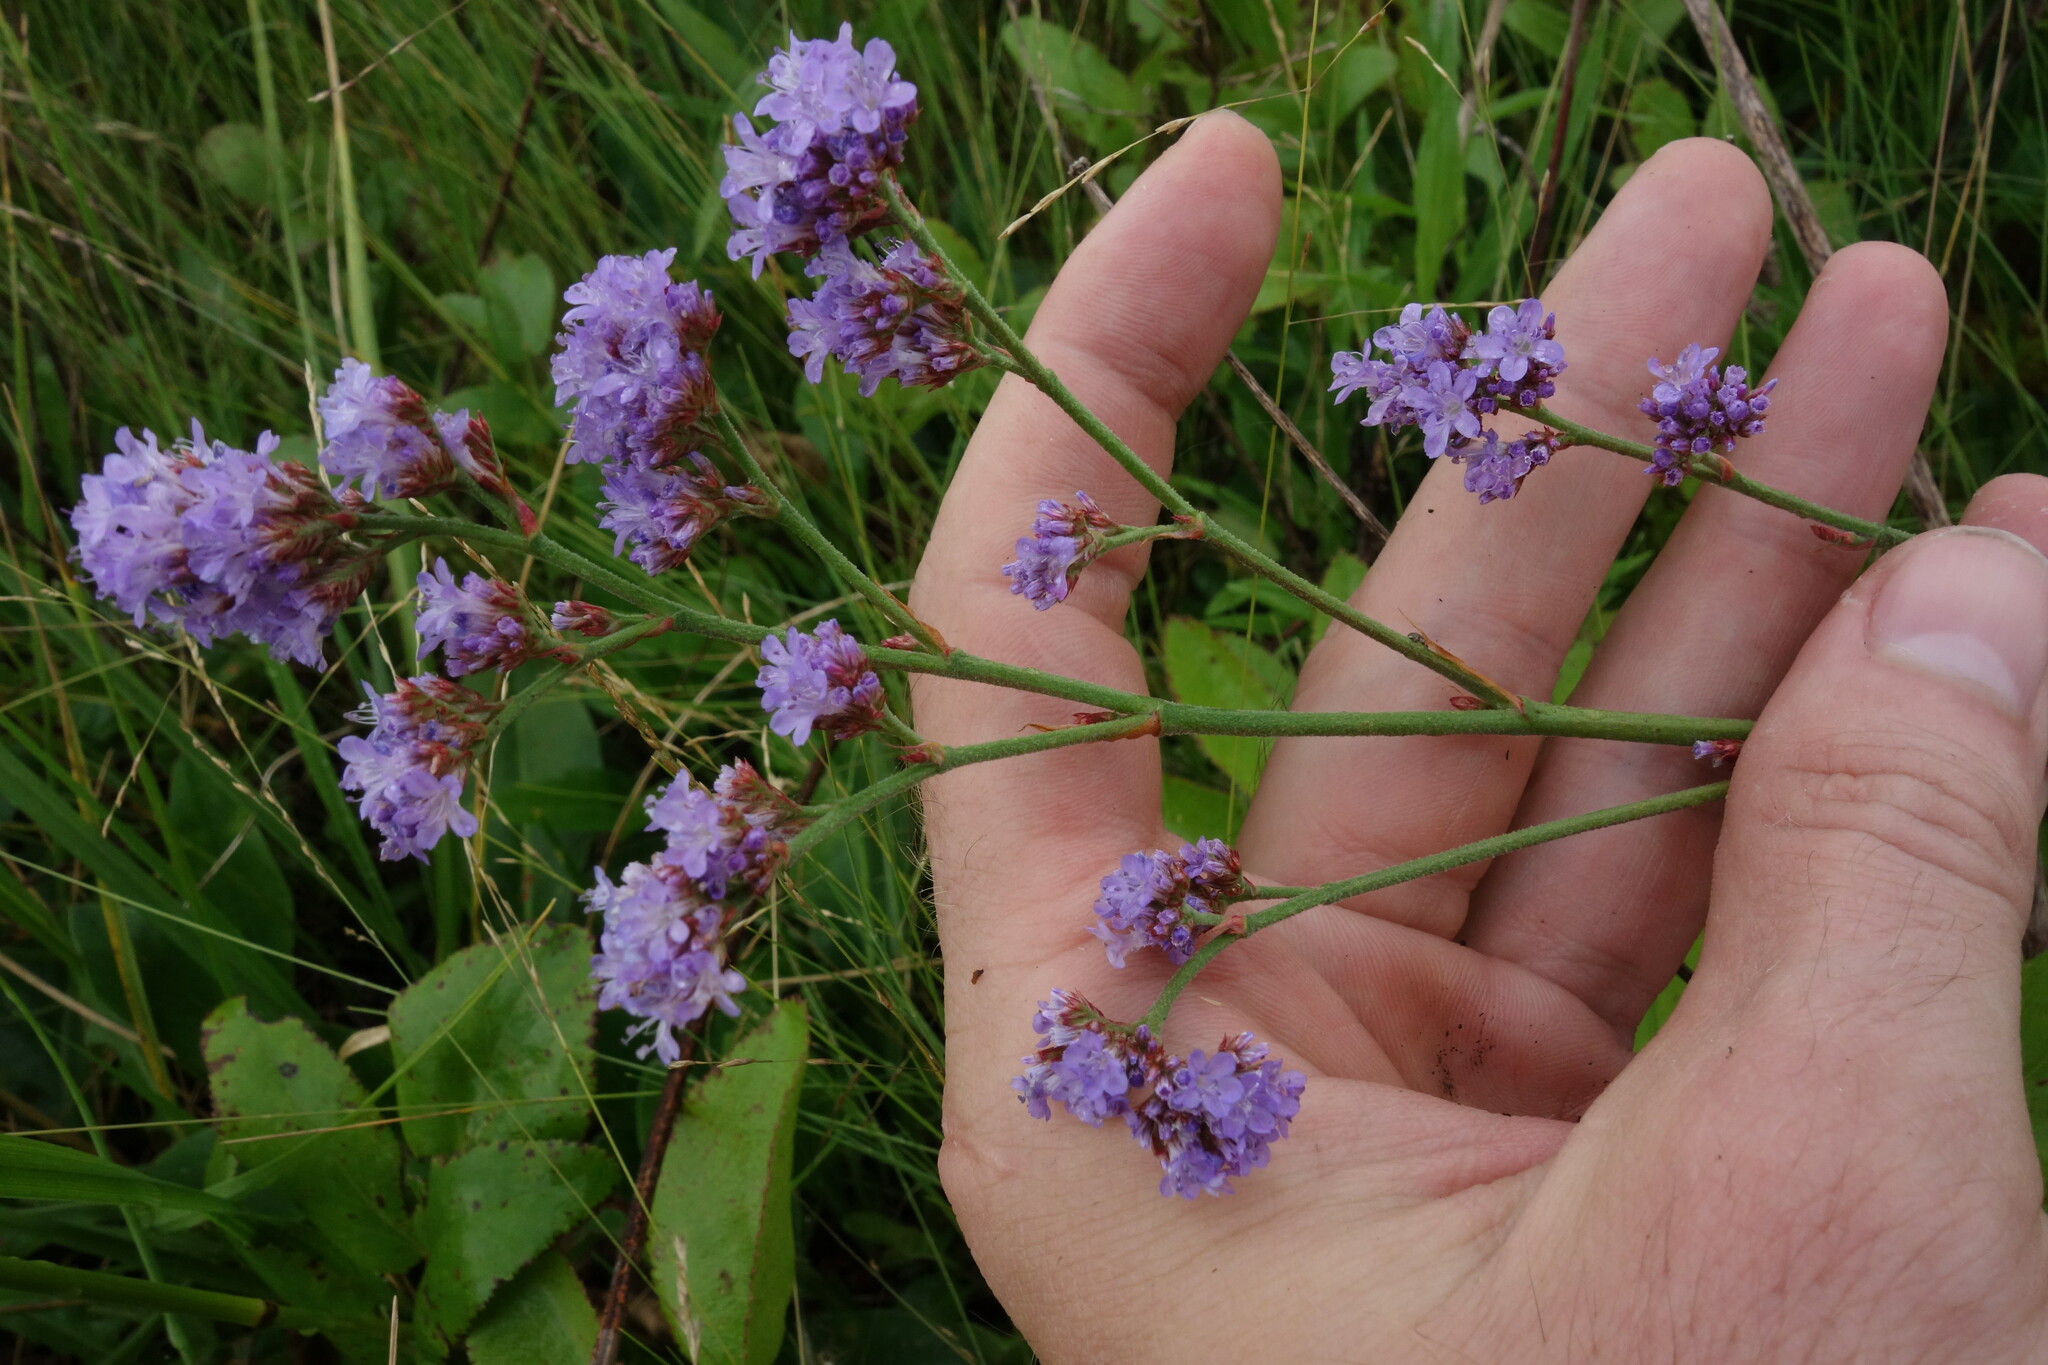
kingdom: Plantae
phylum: Tracheophyta
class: Magnoliopsida
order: Caryophyllales
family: Plumbaginaceae
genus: Limonium
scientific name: Limonium tomentellum
